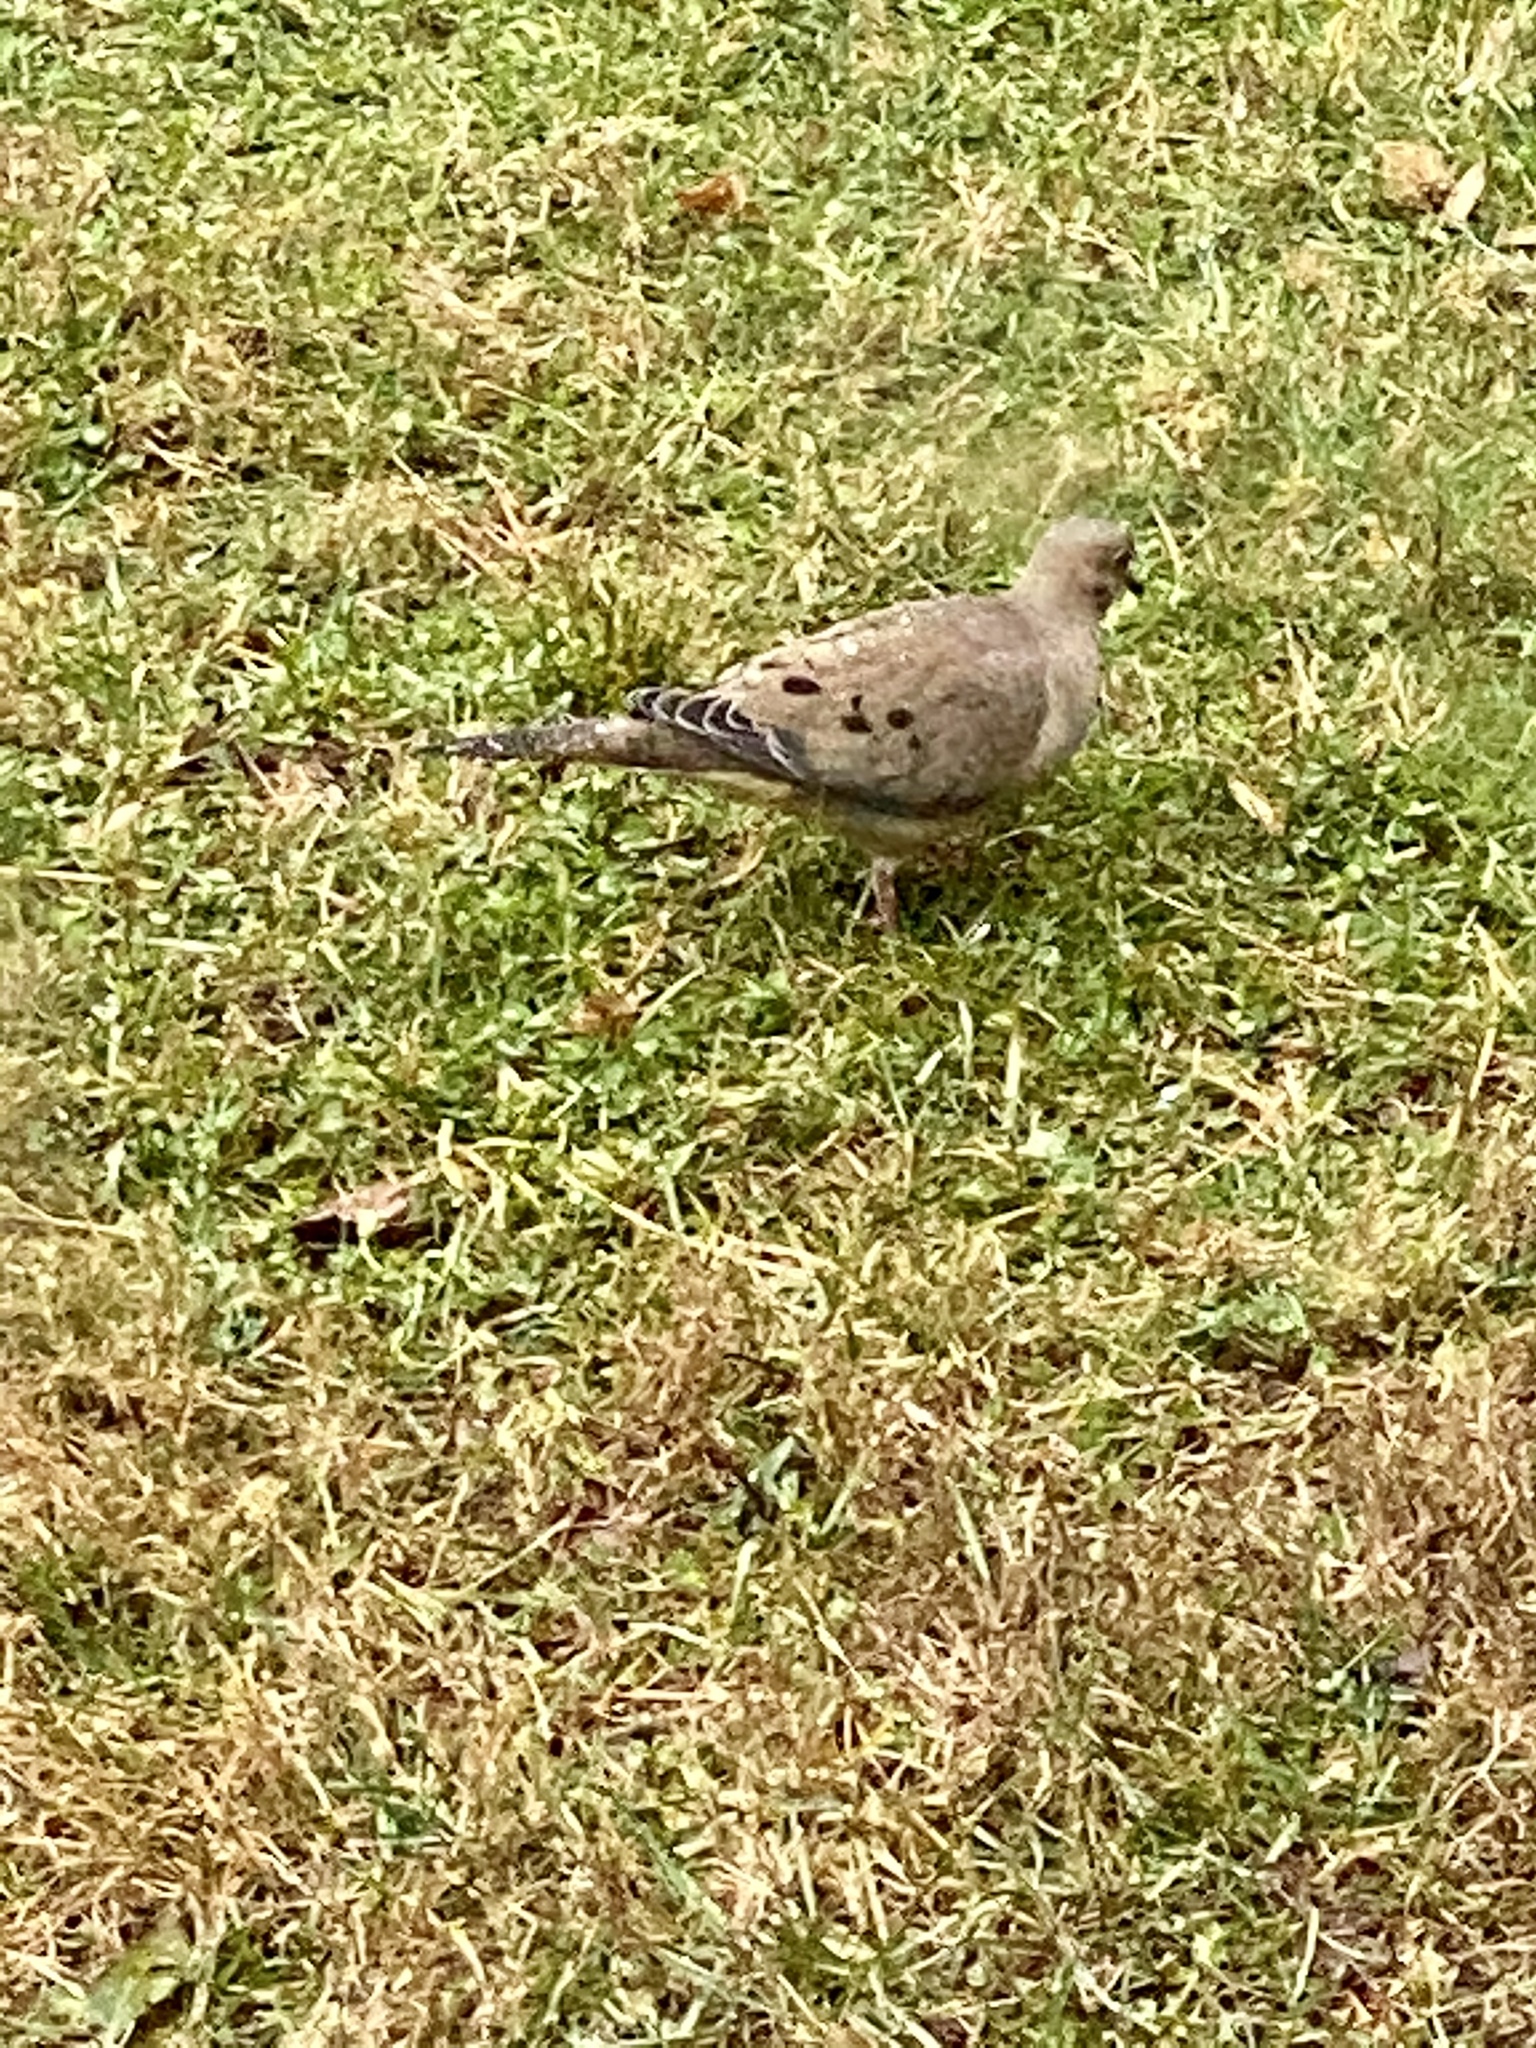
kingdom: Animalia
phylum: Chordata
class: Aves
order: Columbiformes
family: Columbidae
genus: Zenaida
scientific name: Zenaida macroura
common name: Mourning dove
